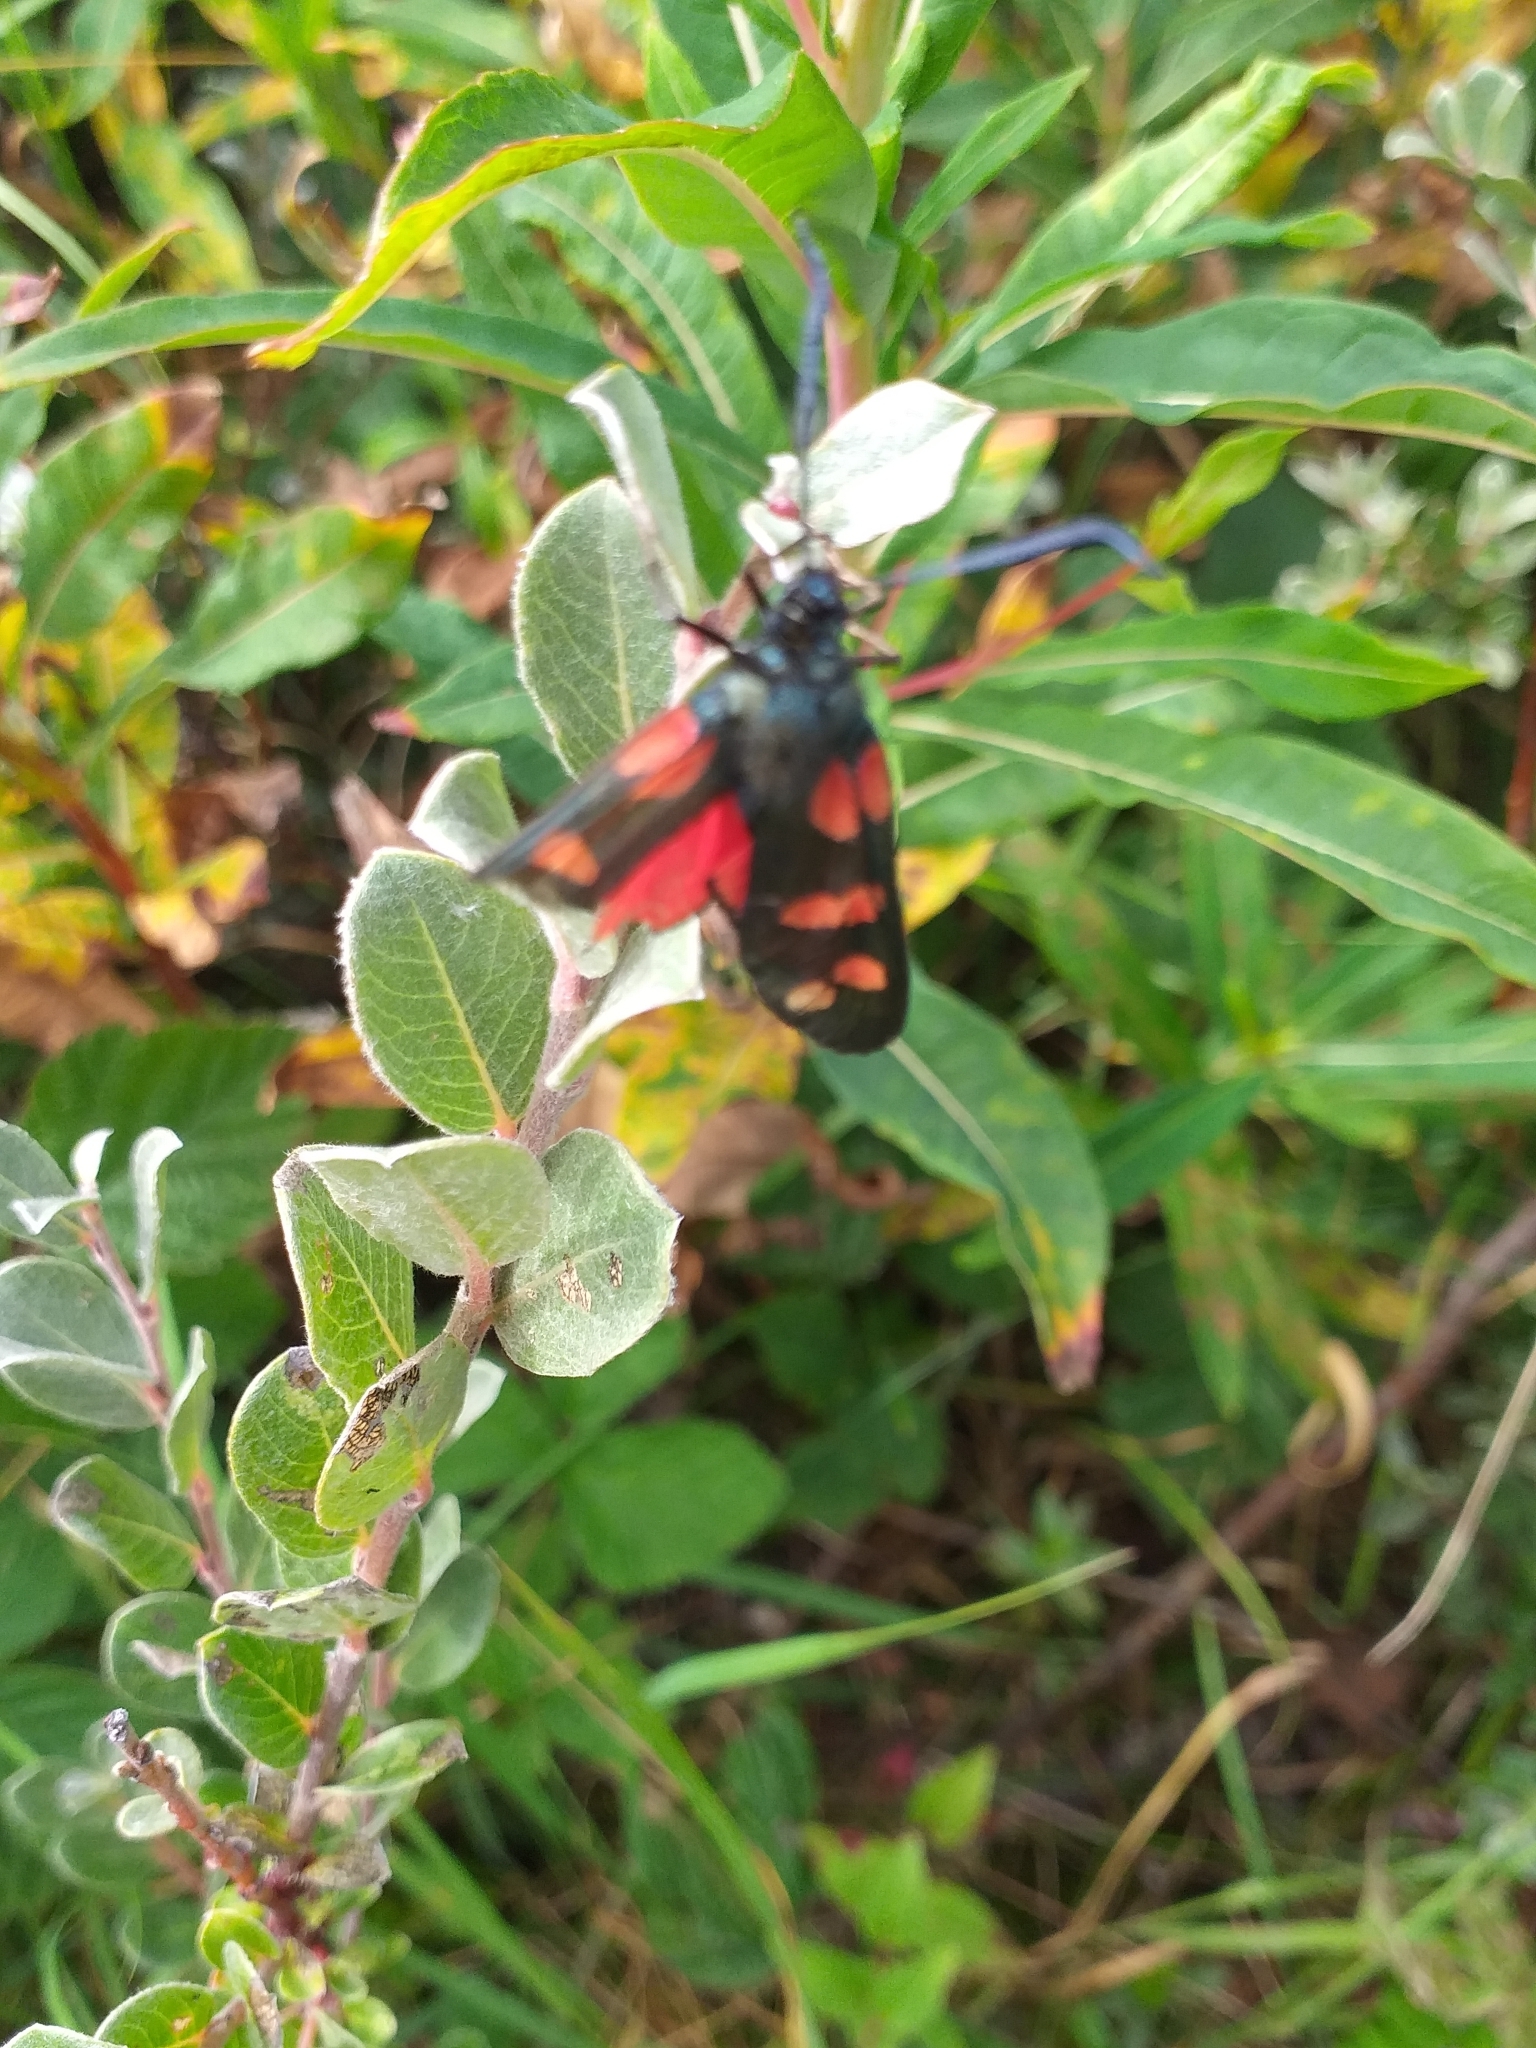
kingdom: Animalia
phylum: Arthropoda
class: Insecta
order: Lepidoptera
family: Zygaenidae
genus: Zygaena
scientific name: Zygaena filipendulae
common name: Six-spot burnet
